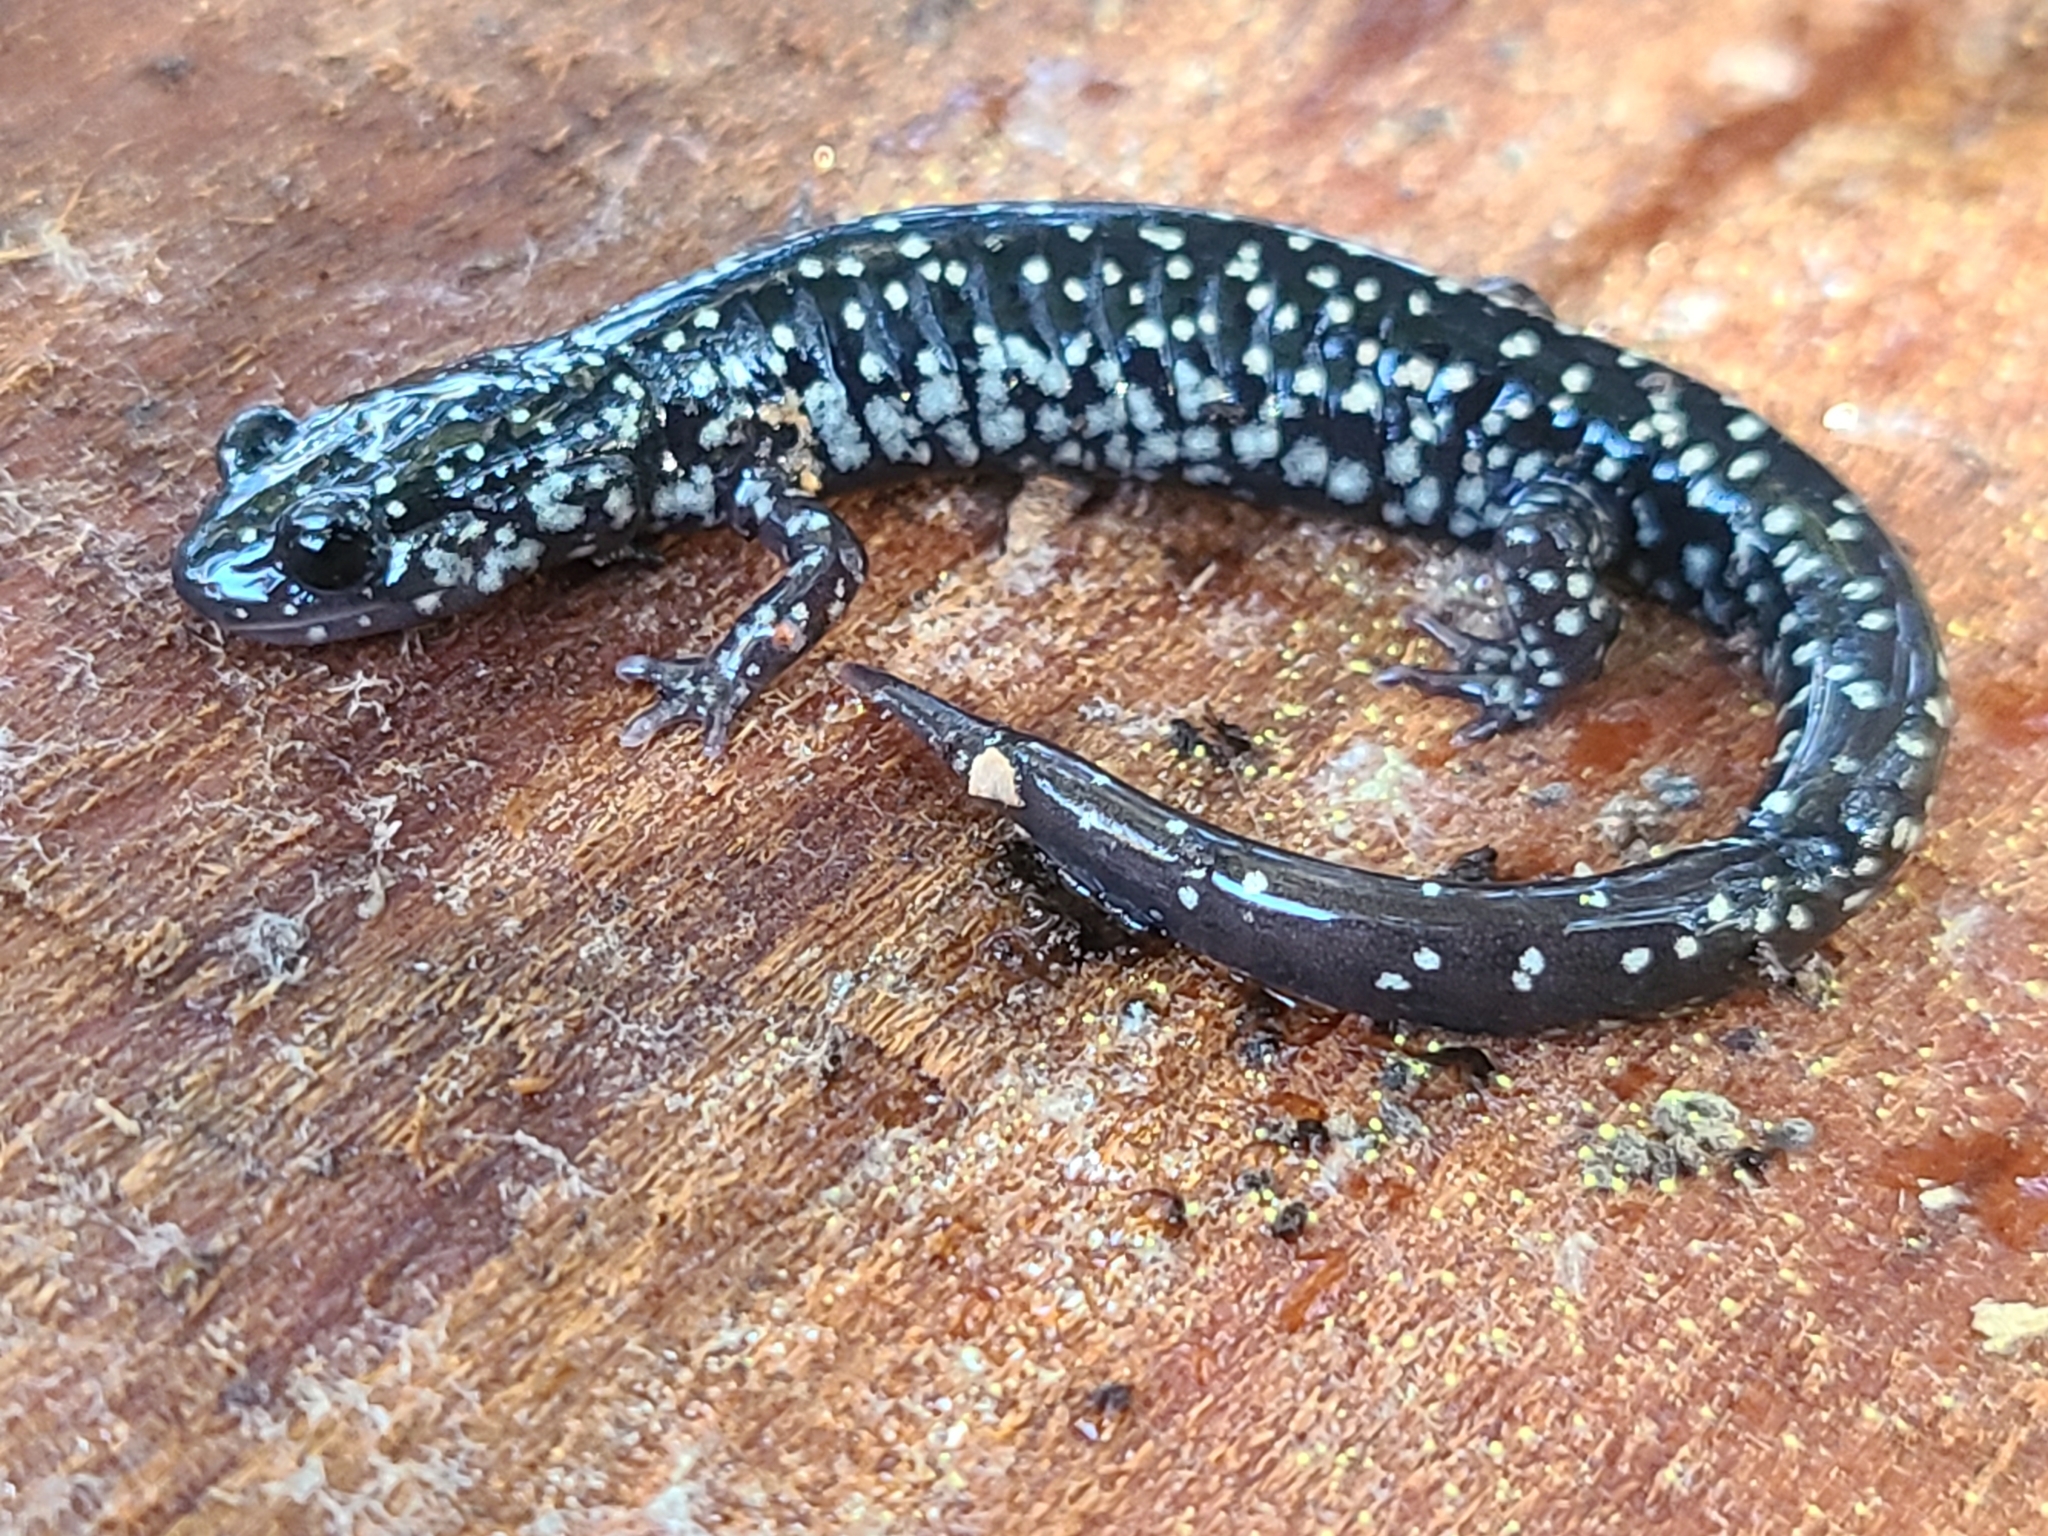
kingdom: Animalia
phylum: Chordata
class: Amphibia
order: Caudata
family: Plethodontidae
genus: Plethodon
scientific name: Plethodon mississippi
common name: Mississippi slimy salamander
